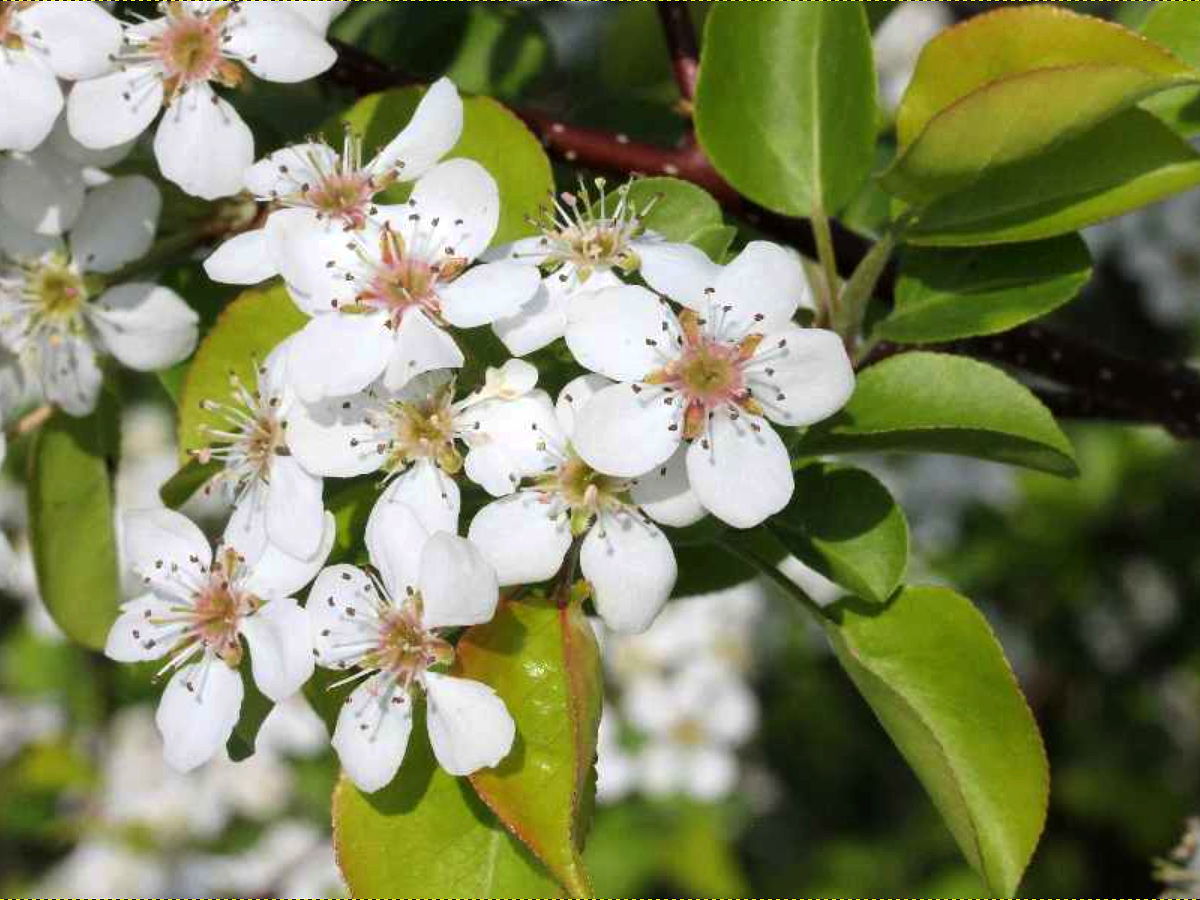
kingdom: Plantae
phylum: Tracheophyta
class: Magnoliopsida
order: Rosales
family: Rosaceae
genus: Pyrus
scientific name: Pyrus calleryana
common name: Callery pear
